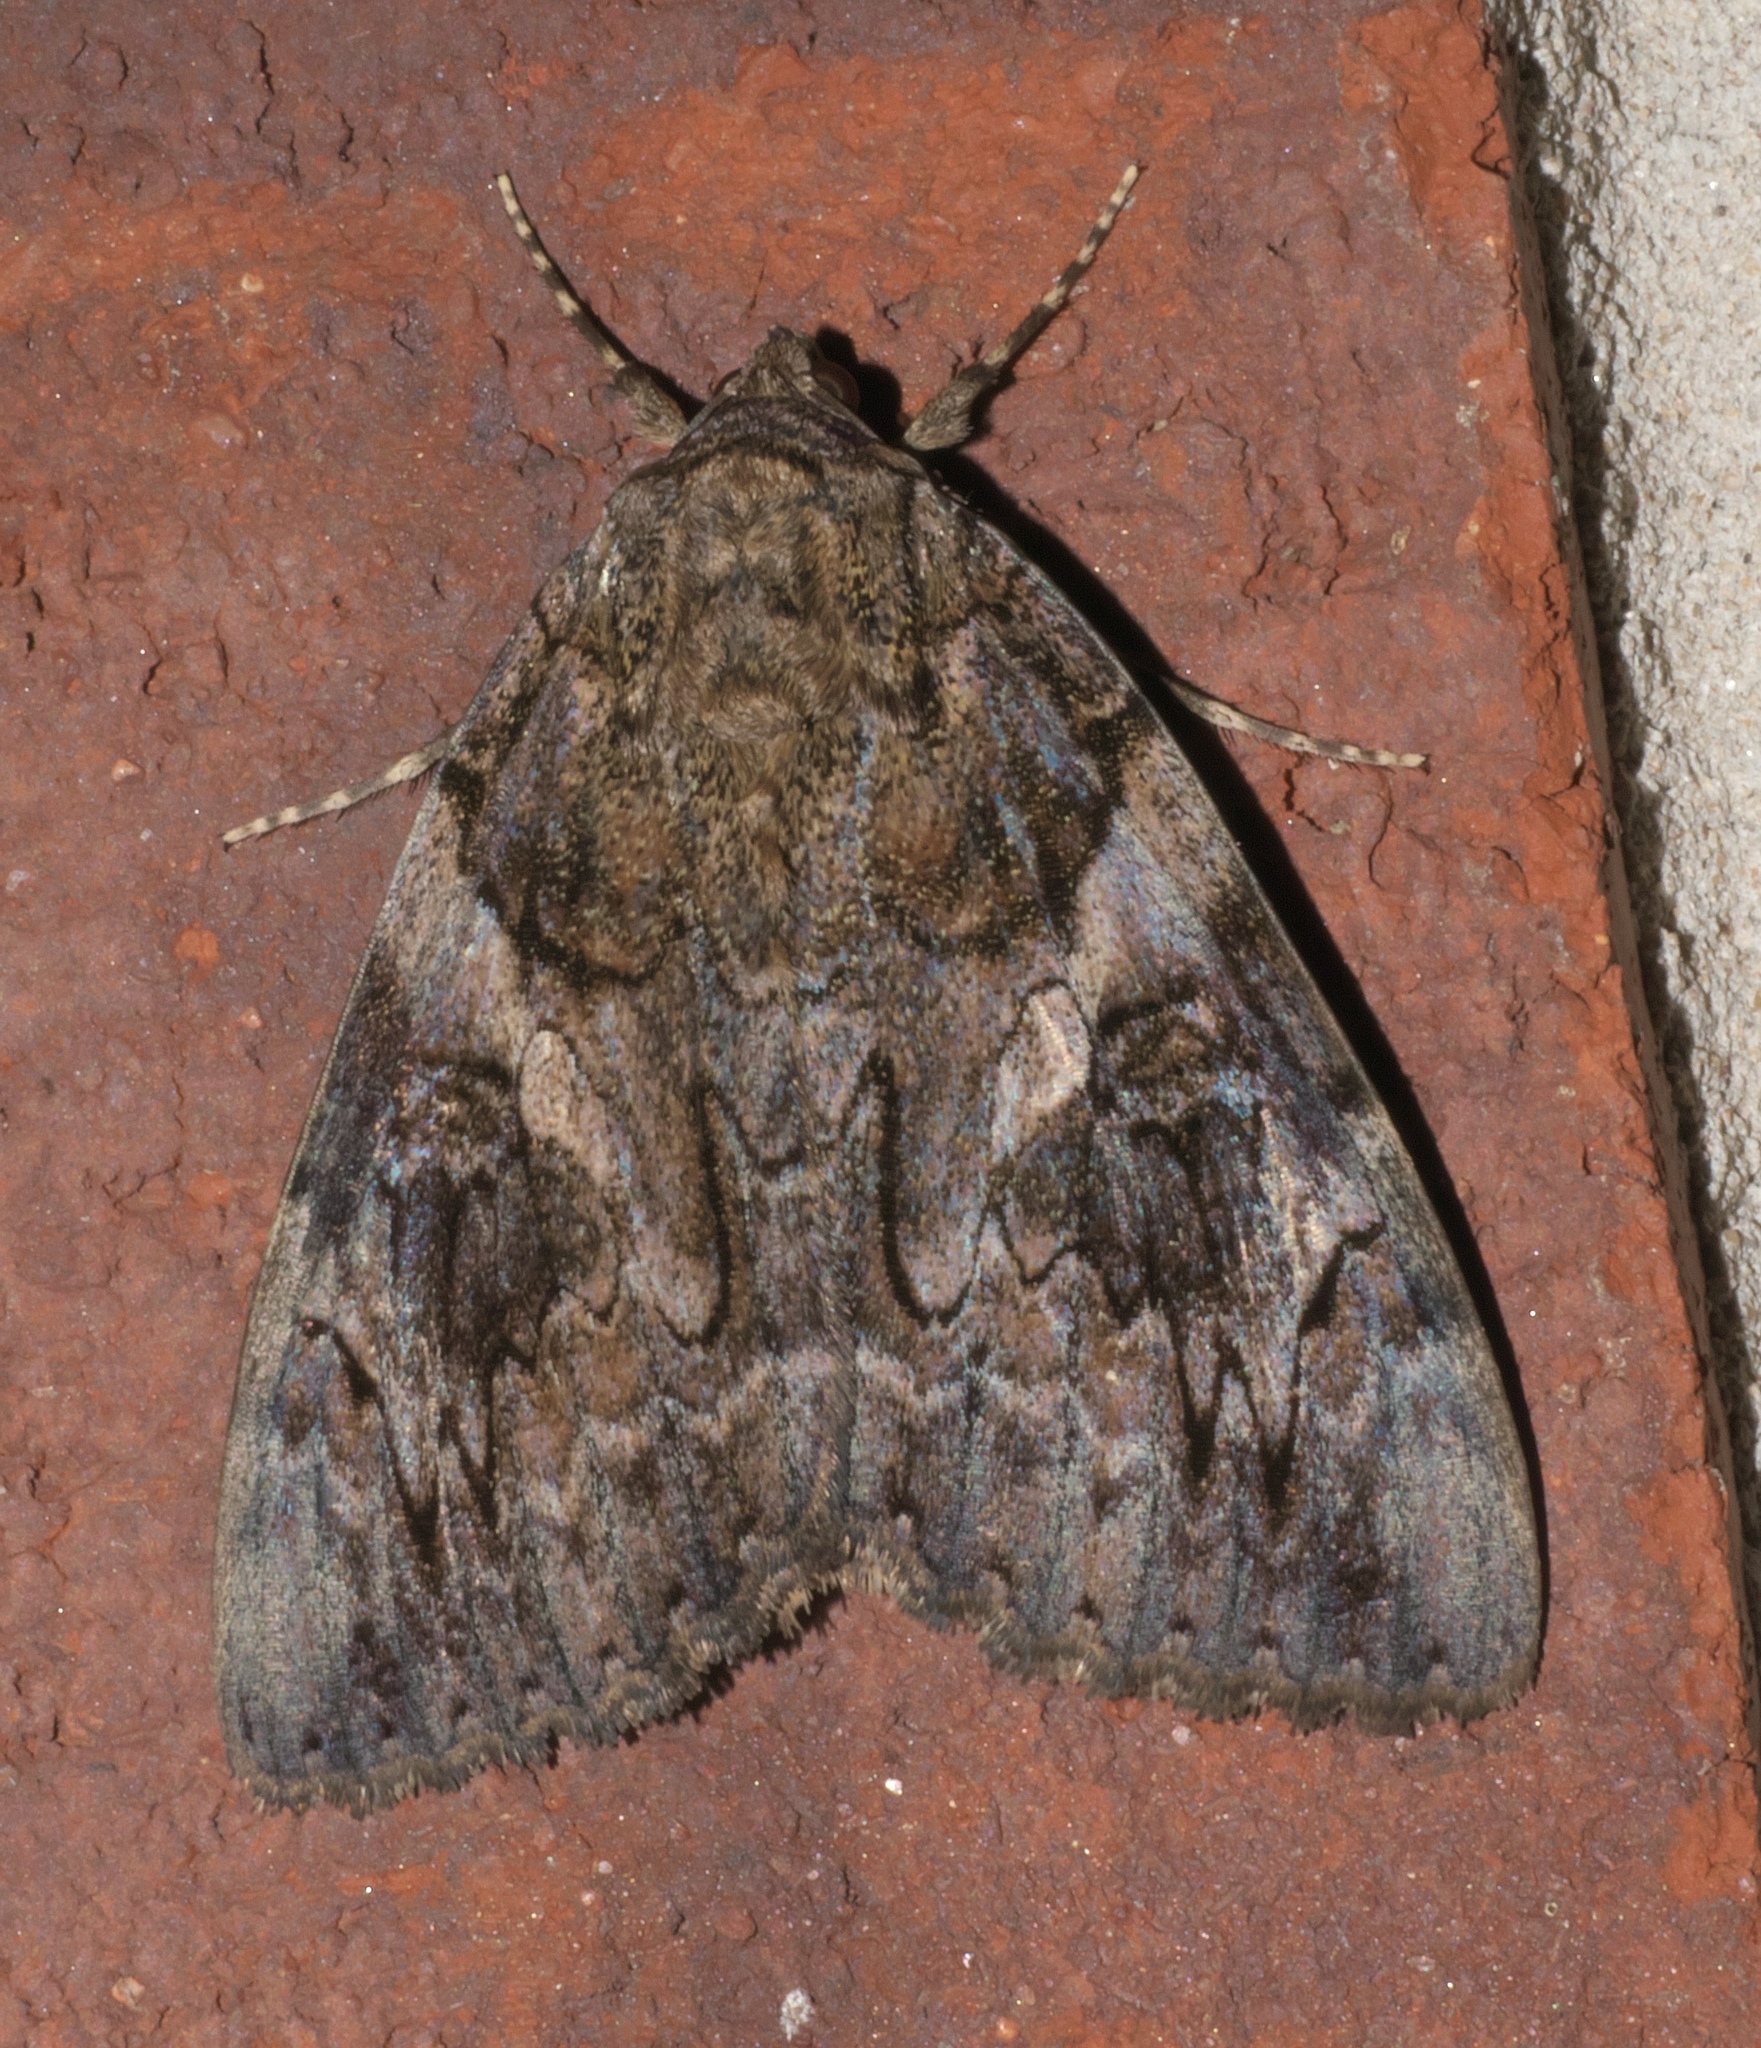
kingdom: Animalia
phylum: Arthropoda
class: Insecta
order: Lepidoptera
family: Erebidae
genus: Catocala
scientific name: Catocala piatrix
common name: The penitent underwing
